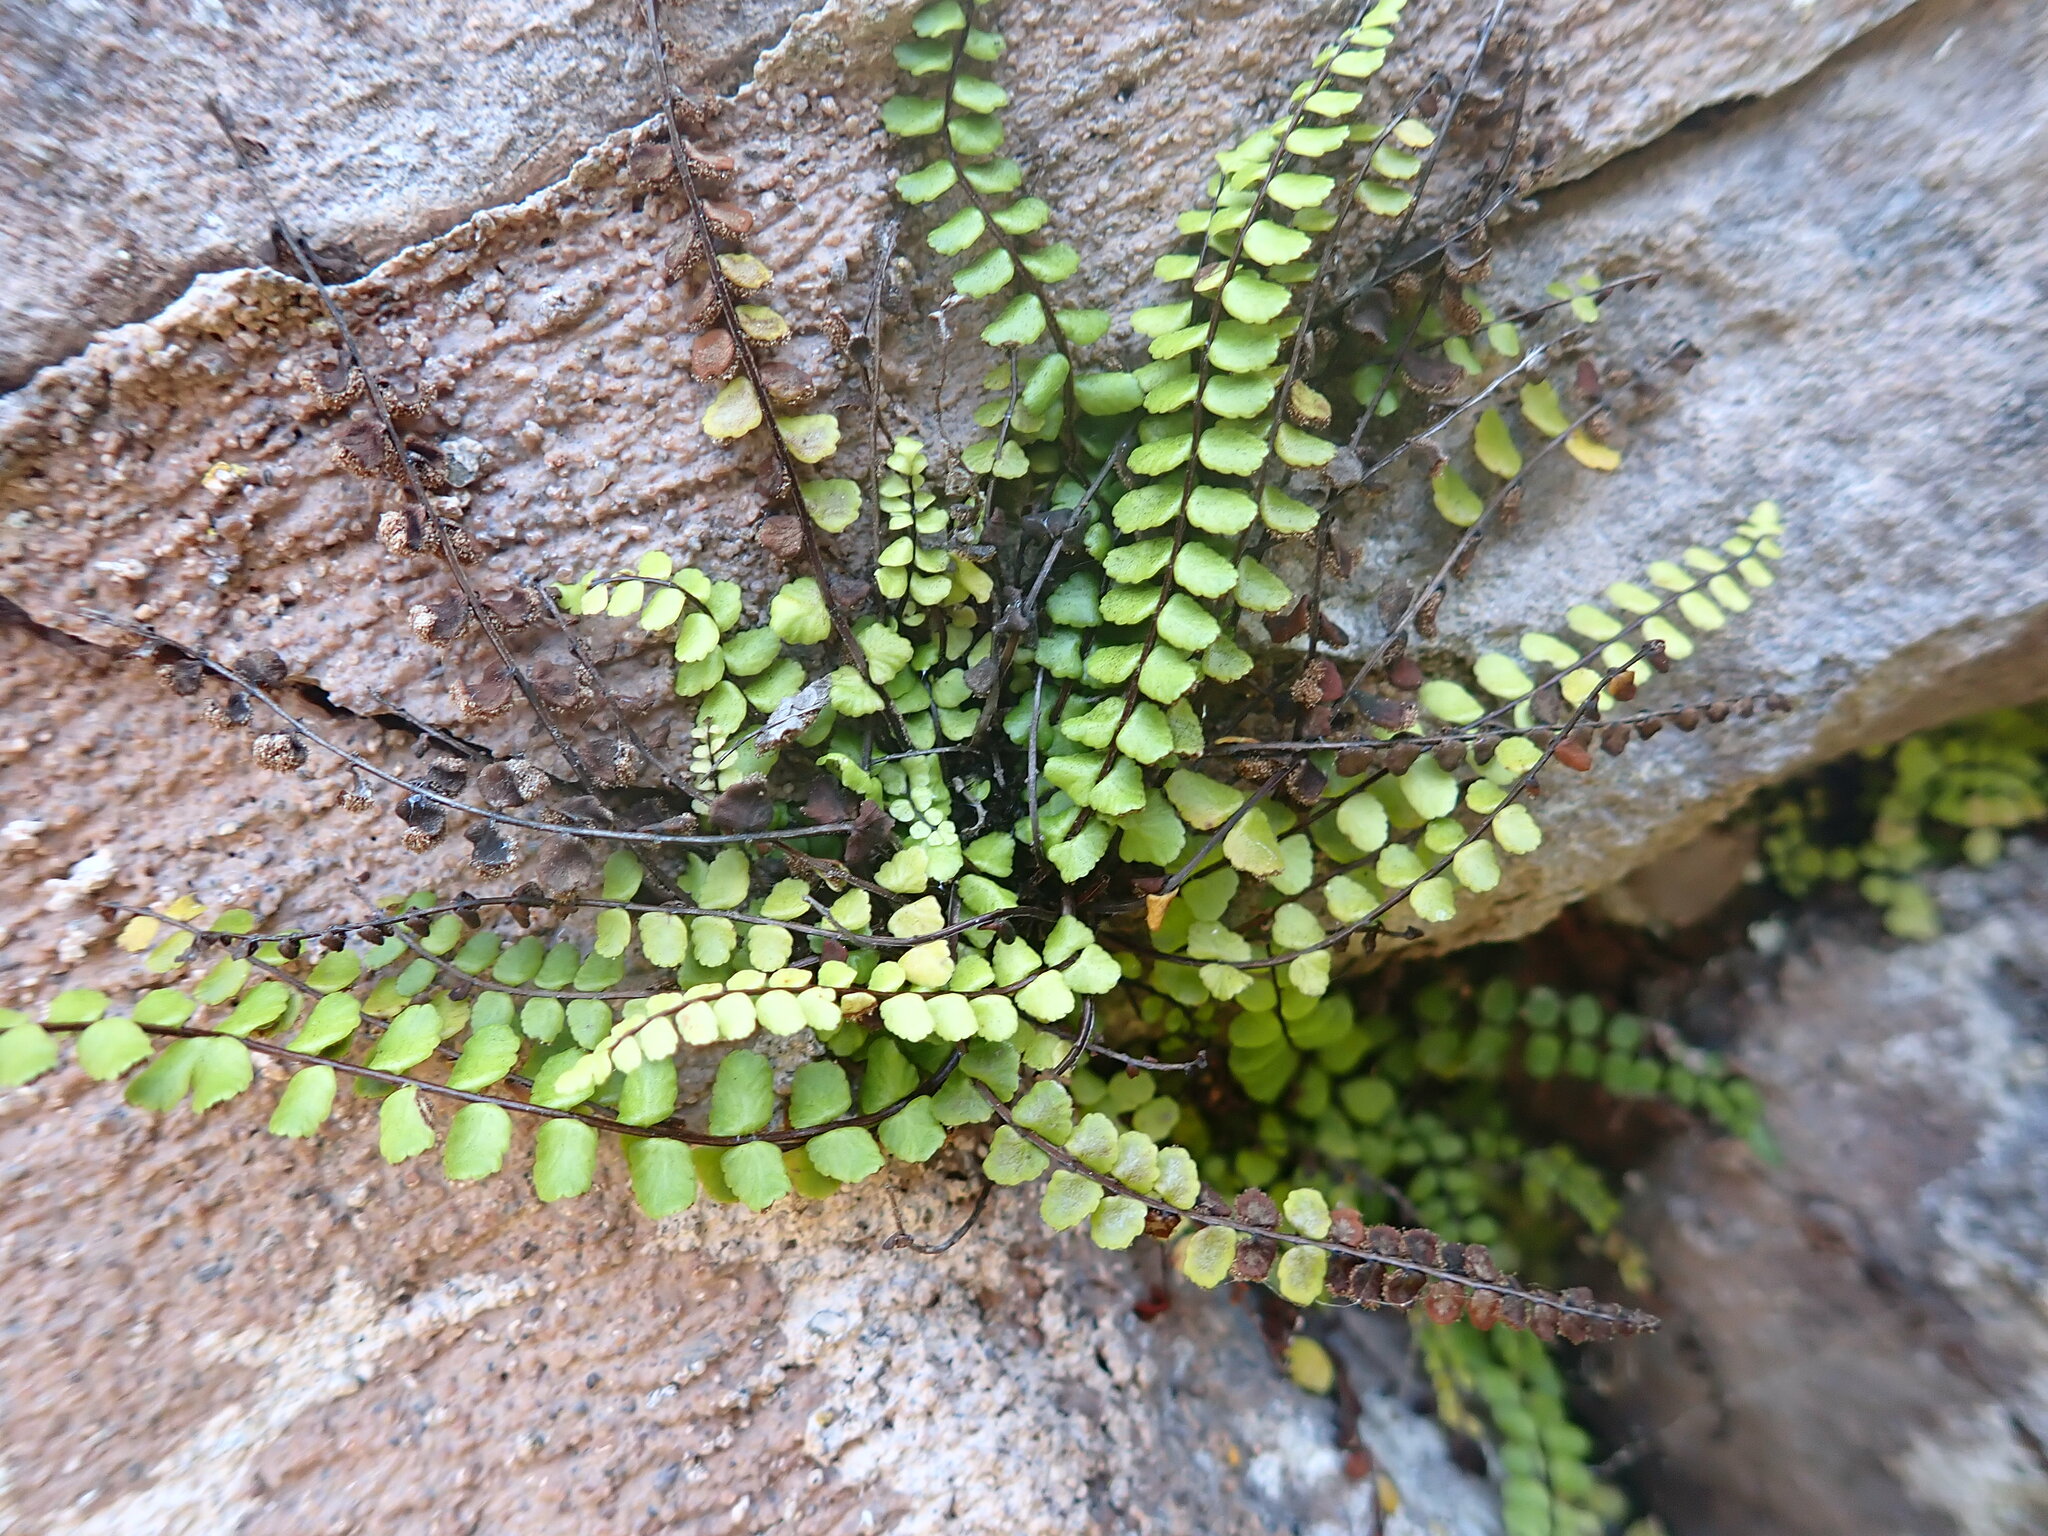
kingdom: Plantae
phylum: Tracheophyta
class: Polypodiopsida
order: Polypodiales
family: Aspleniaceae
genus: Asplenium
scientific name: Asplenium trichomanes
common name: Maidenhair spleenwort
